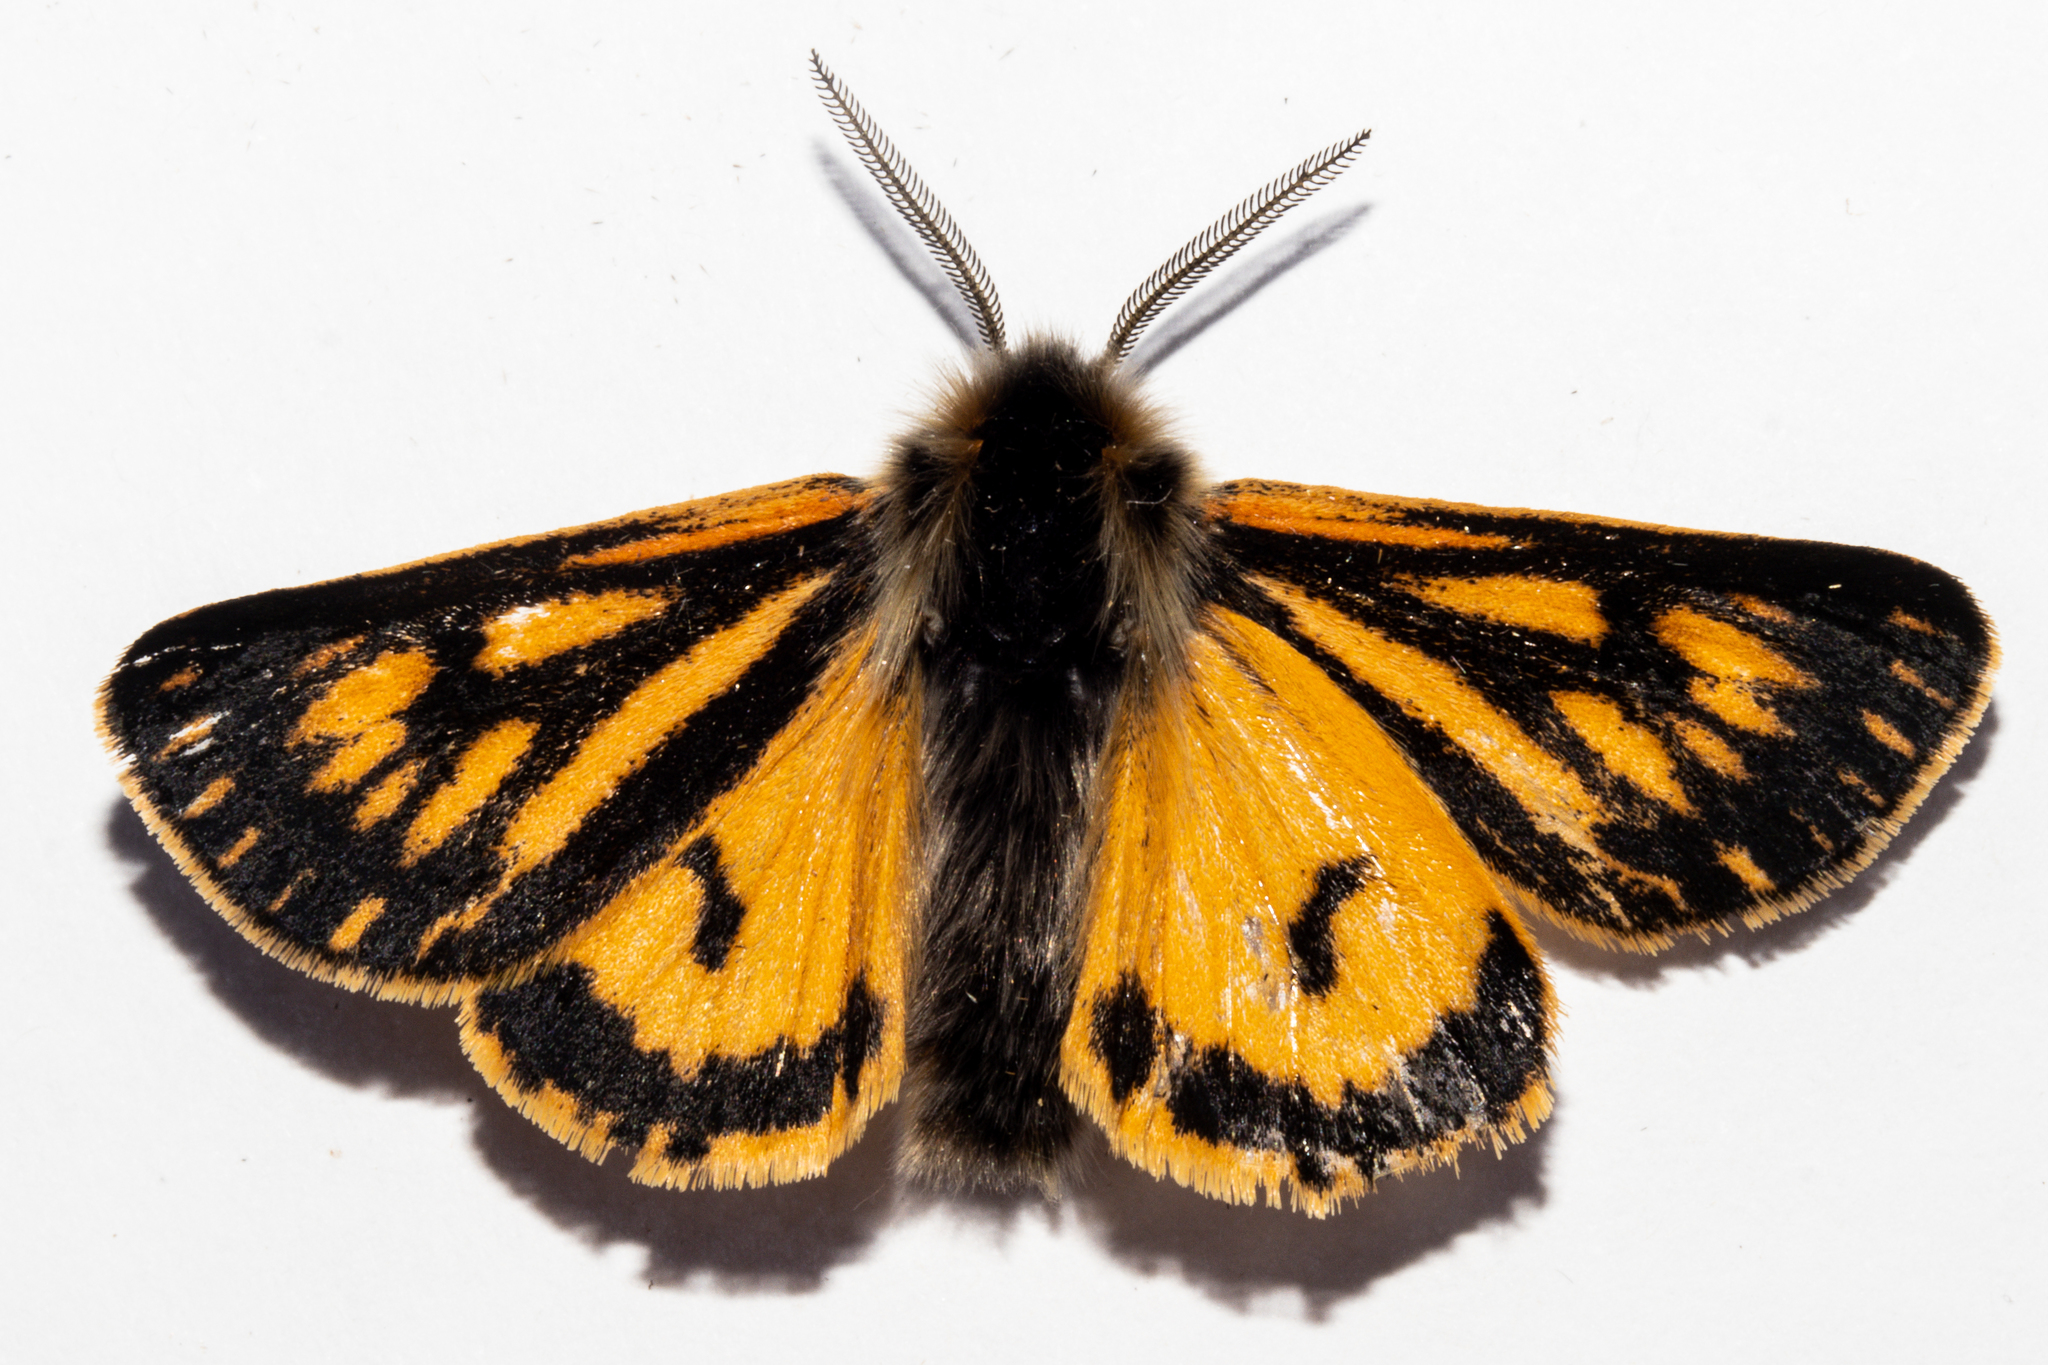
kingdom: Animalia
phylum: Arthropoda
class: Insecta
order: Lepidoptera
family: Erebidae
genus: Metacrias
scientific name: Metacrias erichrysa
